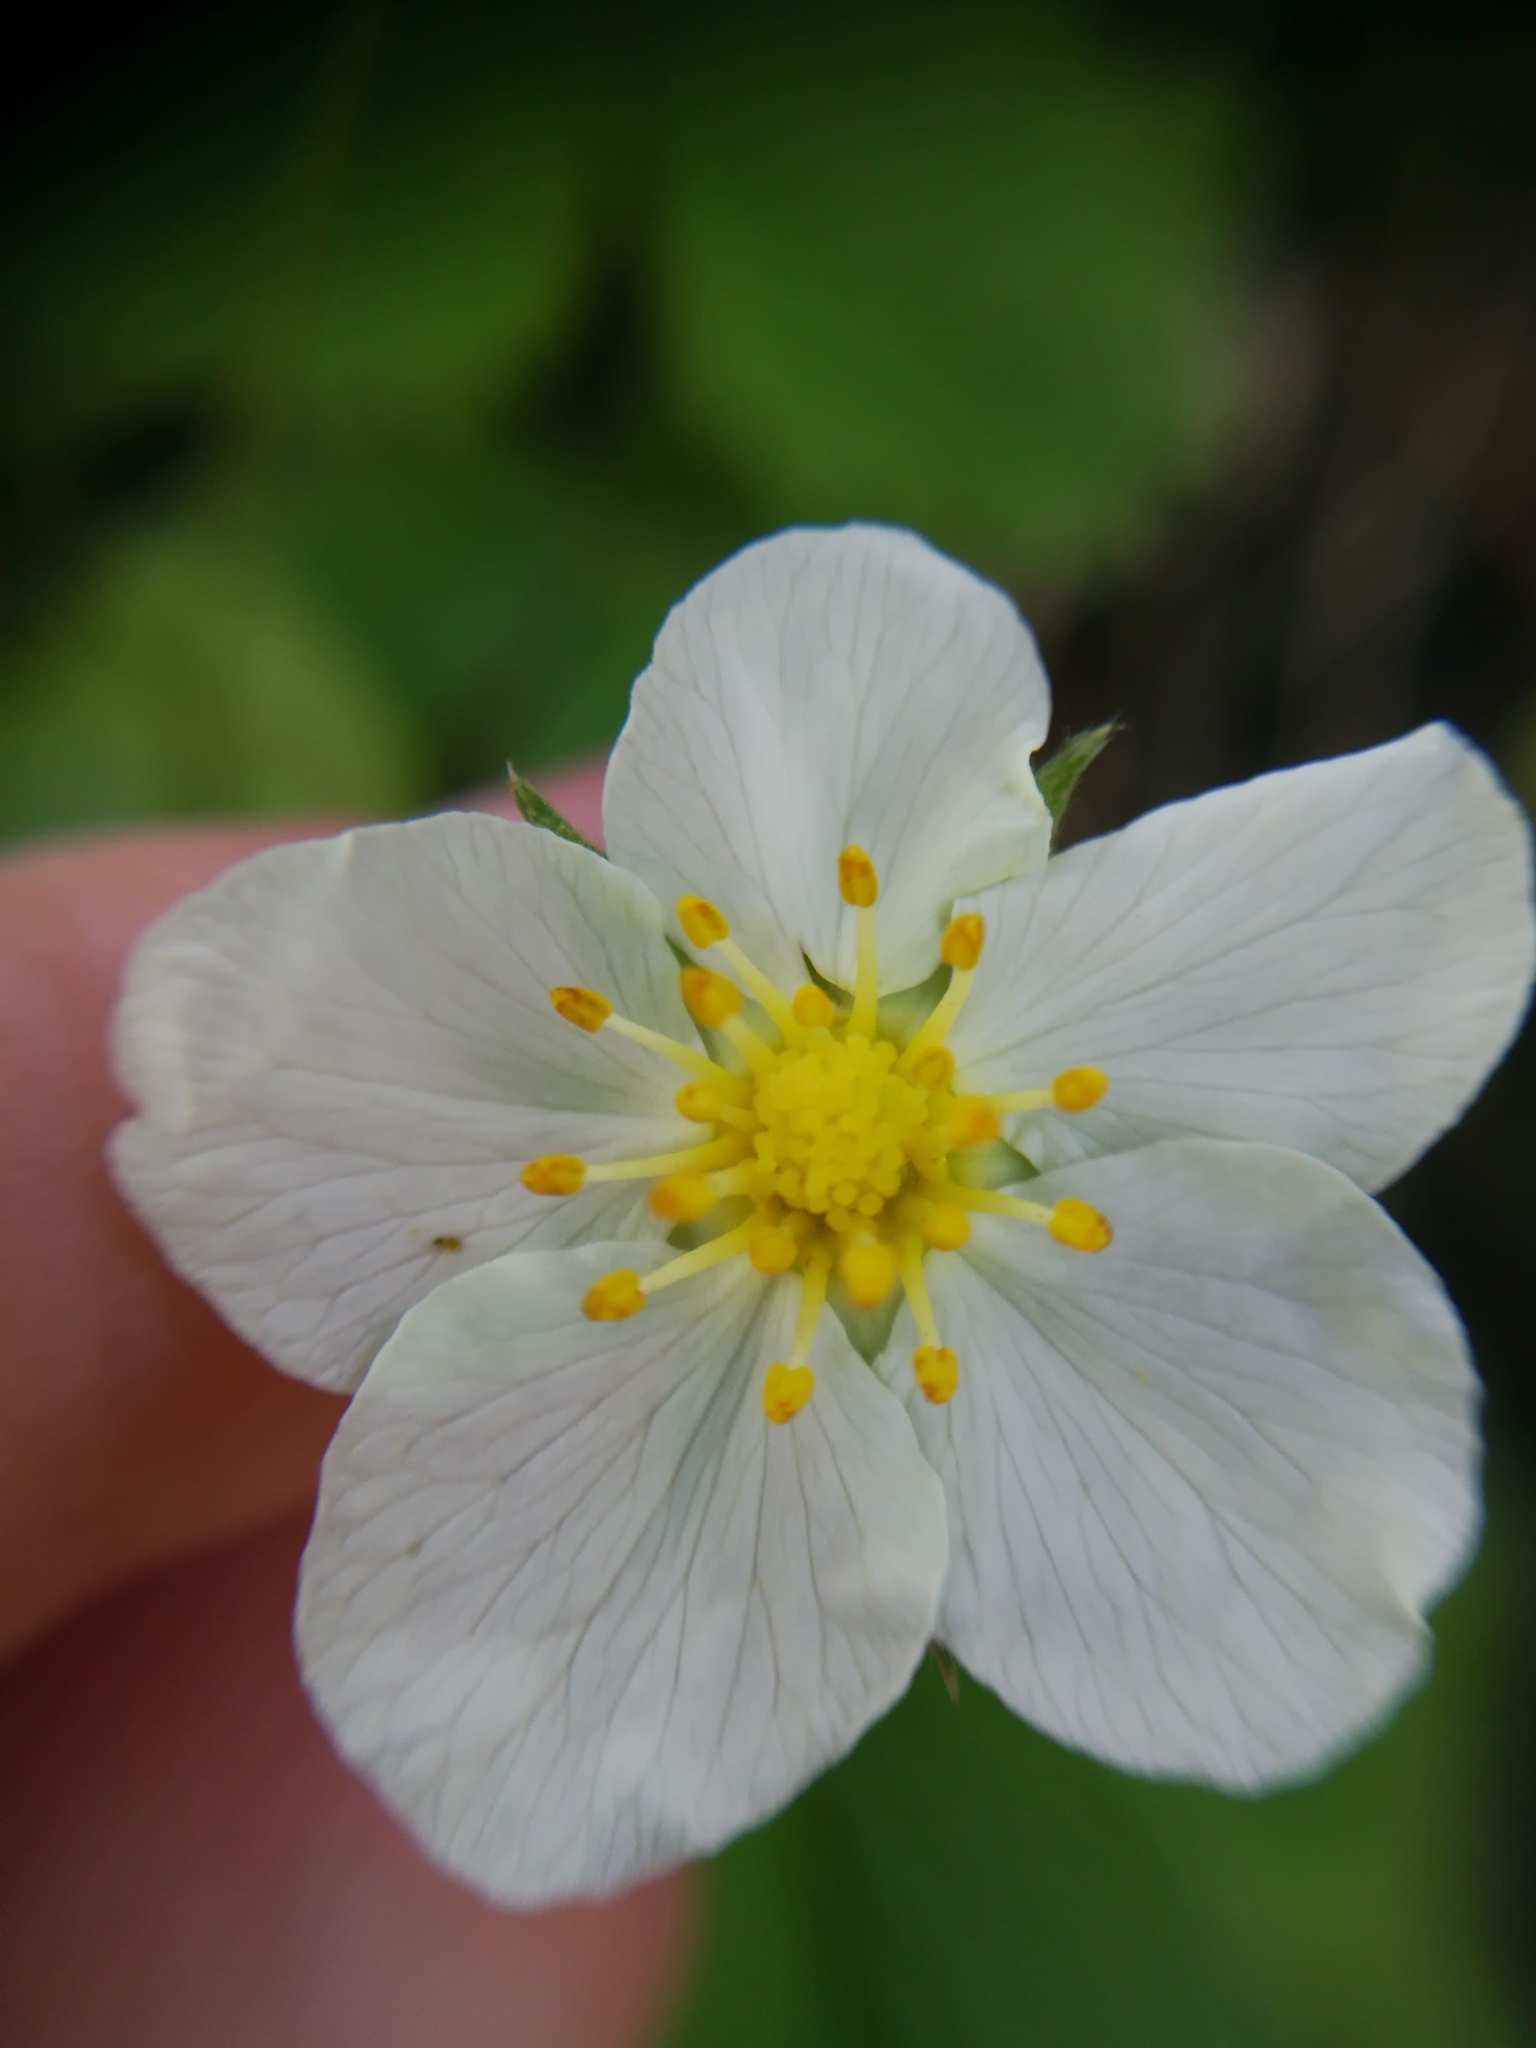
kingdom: Plantae
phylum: Tracheophyta
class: Magnoliopsida
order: Rosales
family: Rosaceae
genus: Fragaria
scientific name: Fragaria viridis
